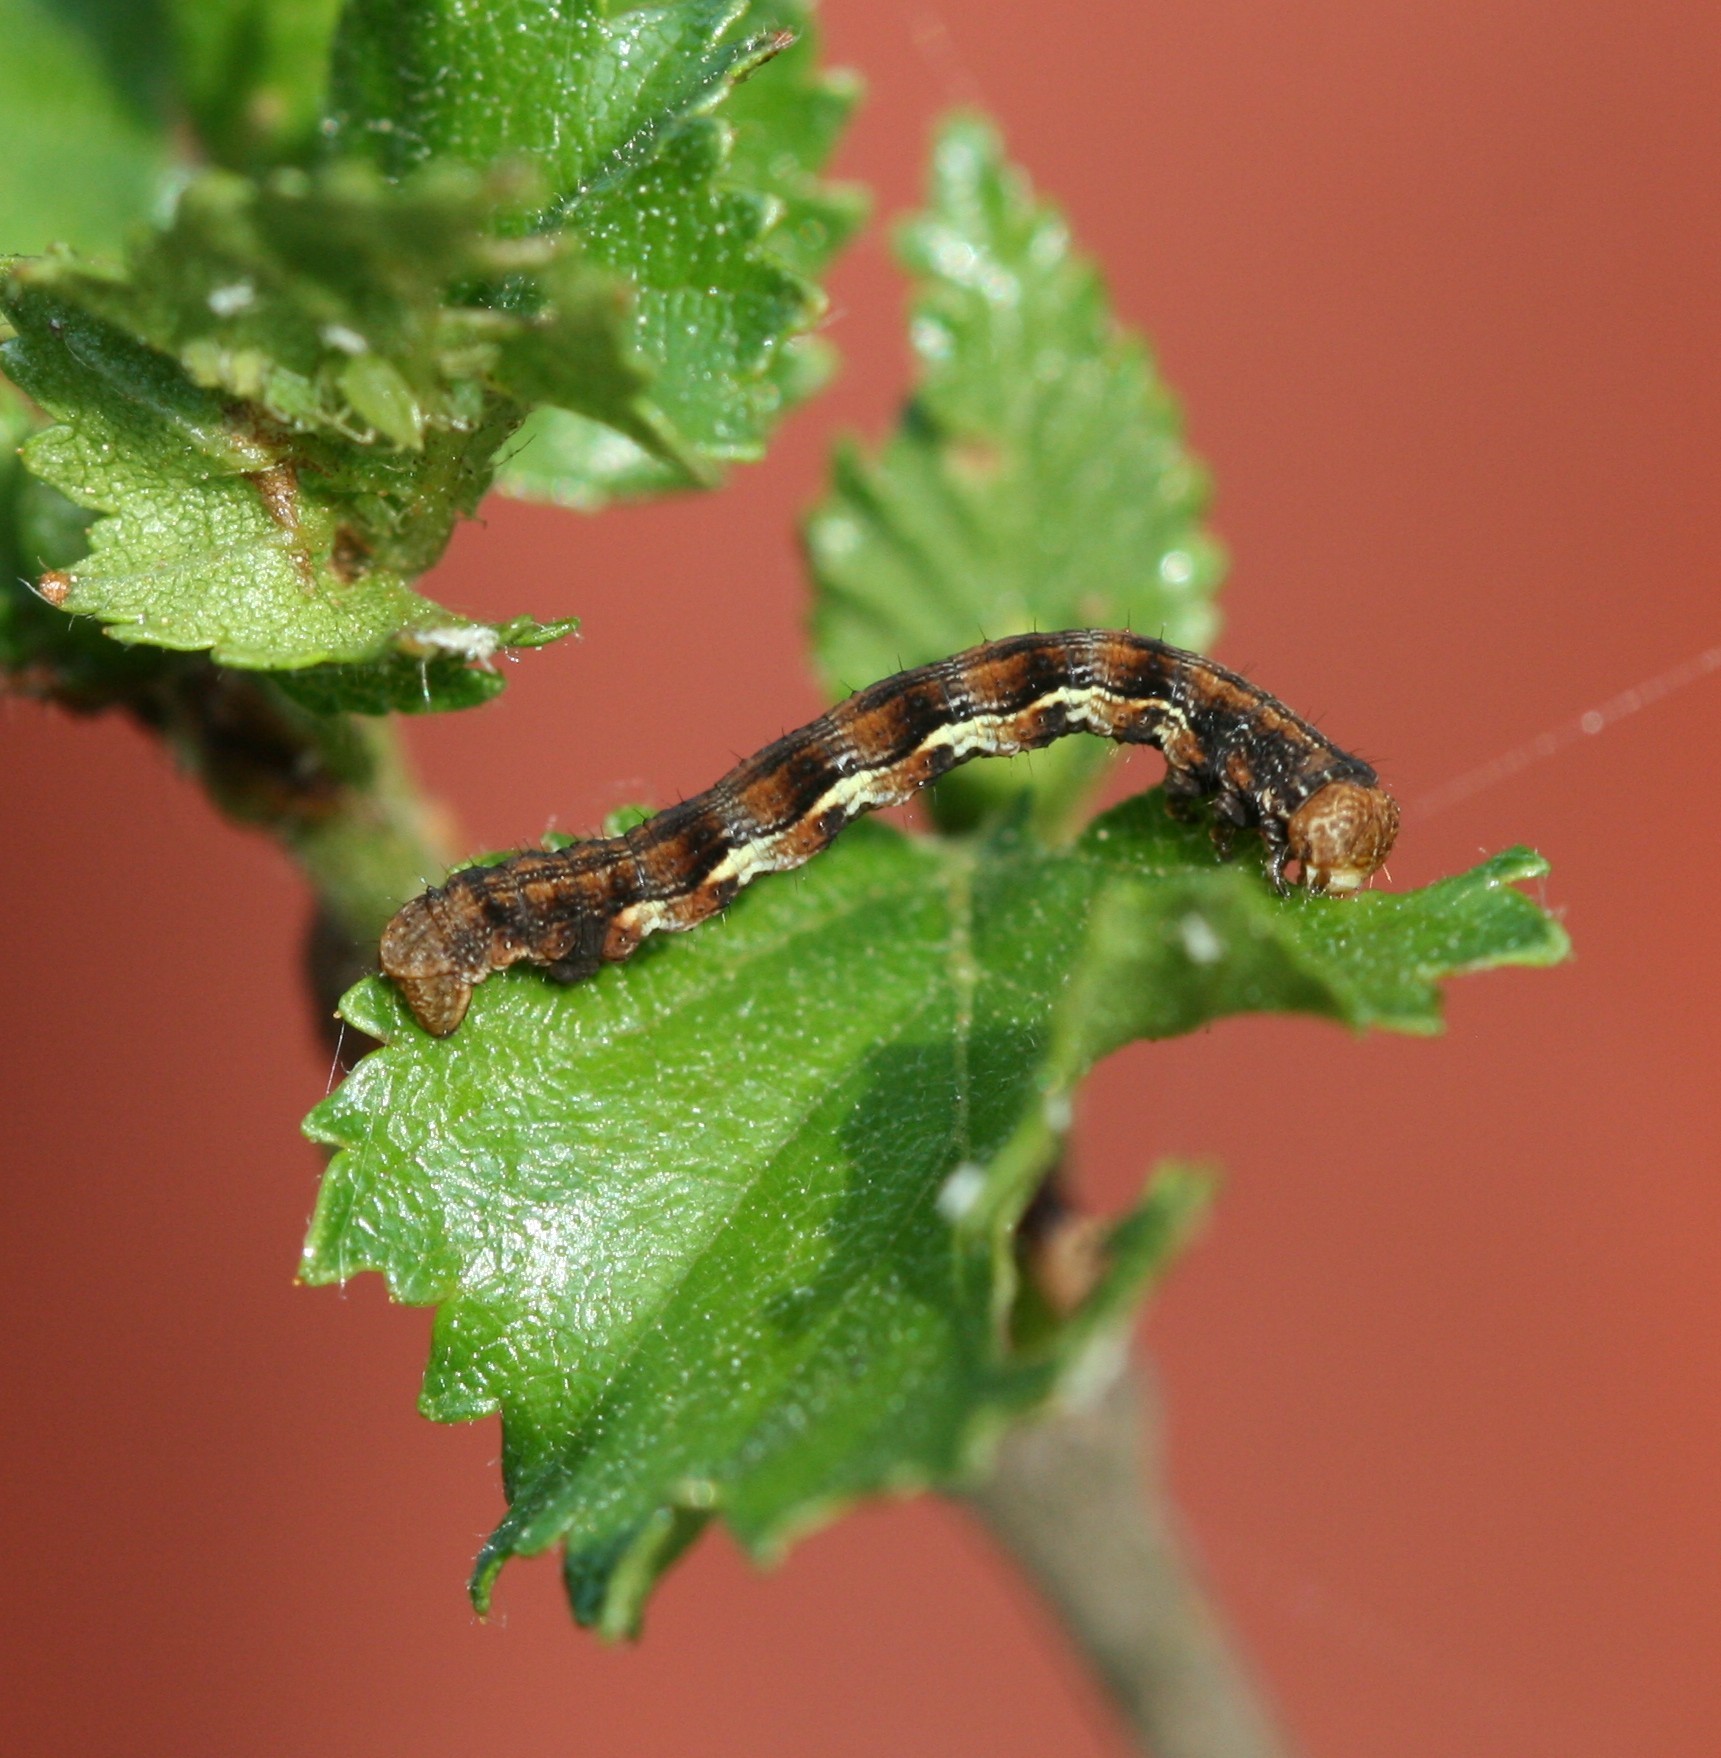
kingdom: Animalia
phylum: Arthropoda
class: Insecta
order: Lepidoptera
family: Geometridae
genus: Erannis
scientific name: Erannis defoliaria
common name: Mottled umber
